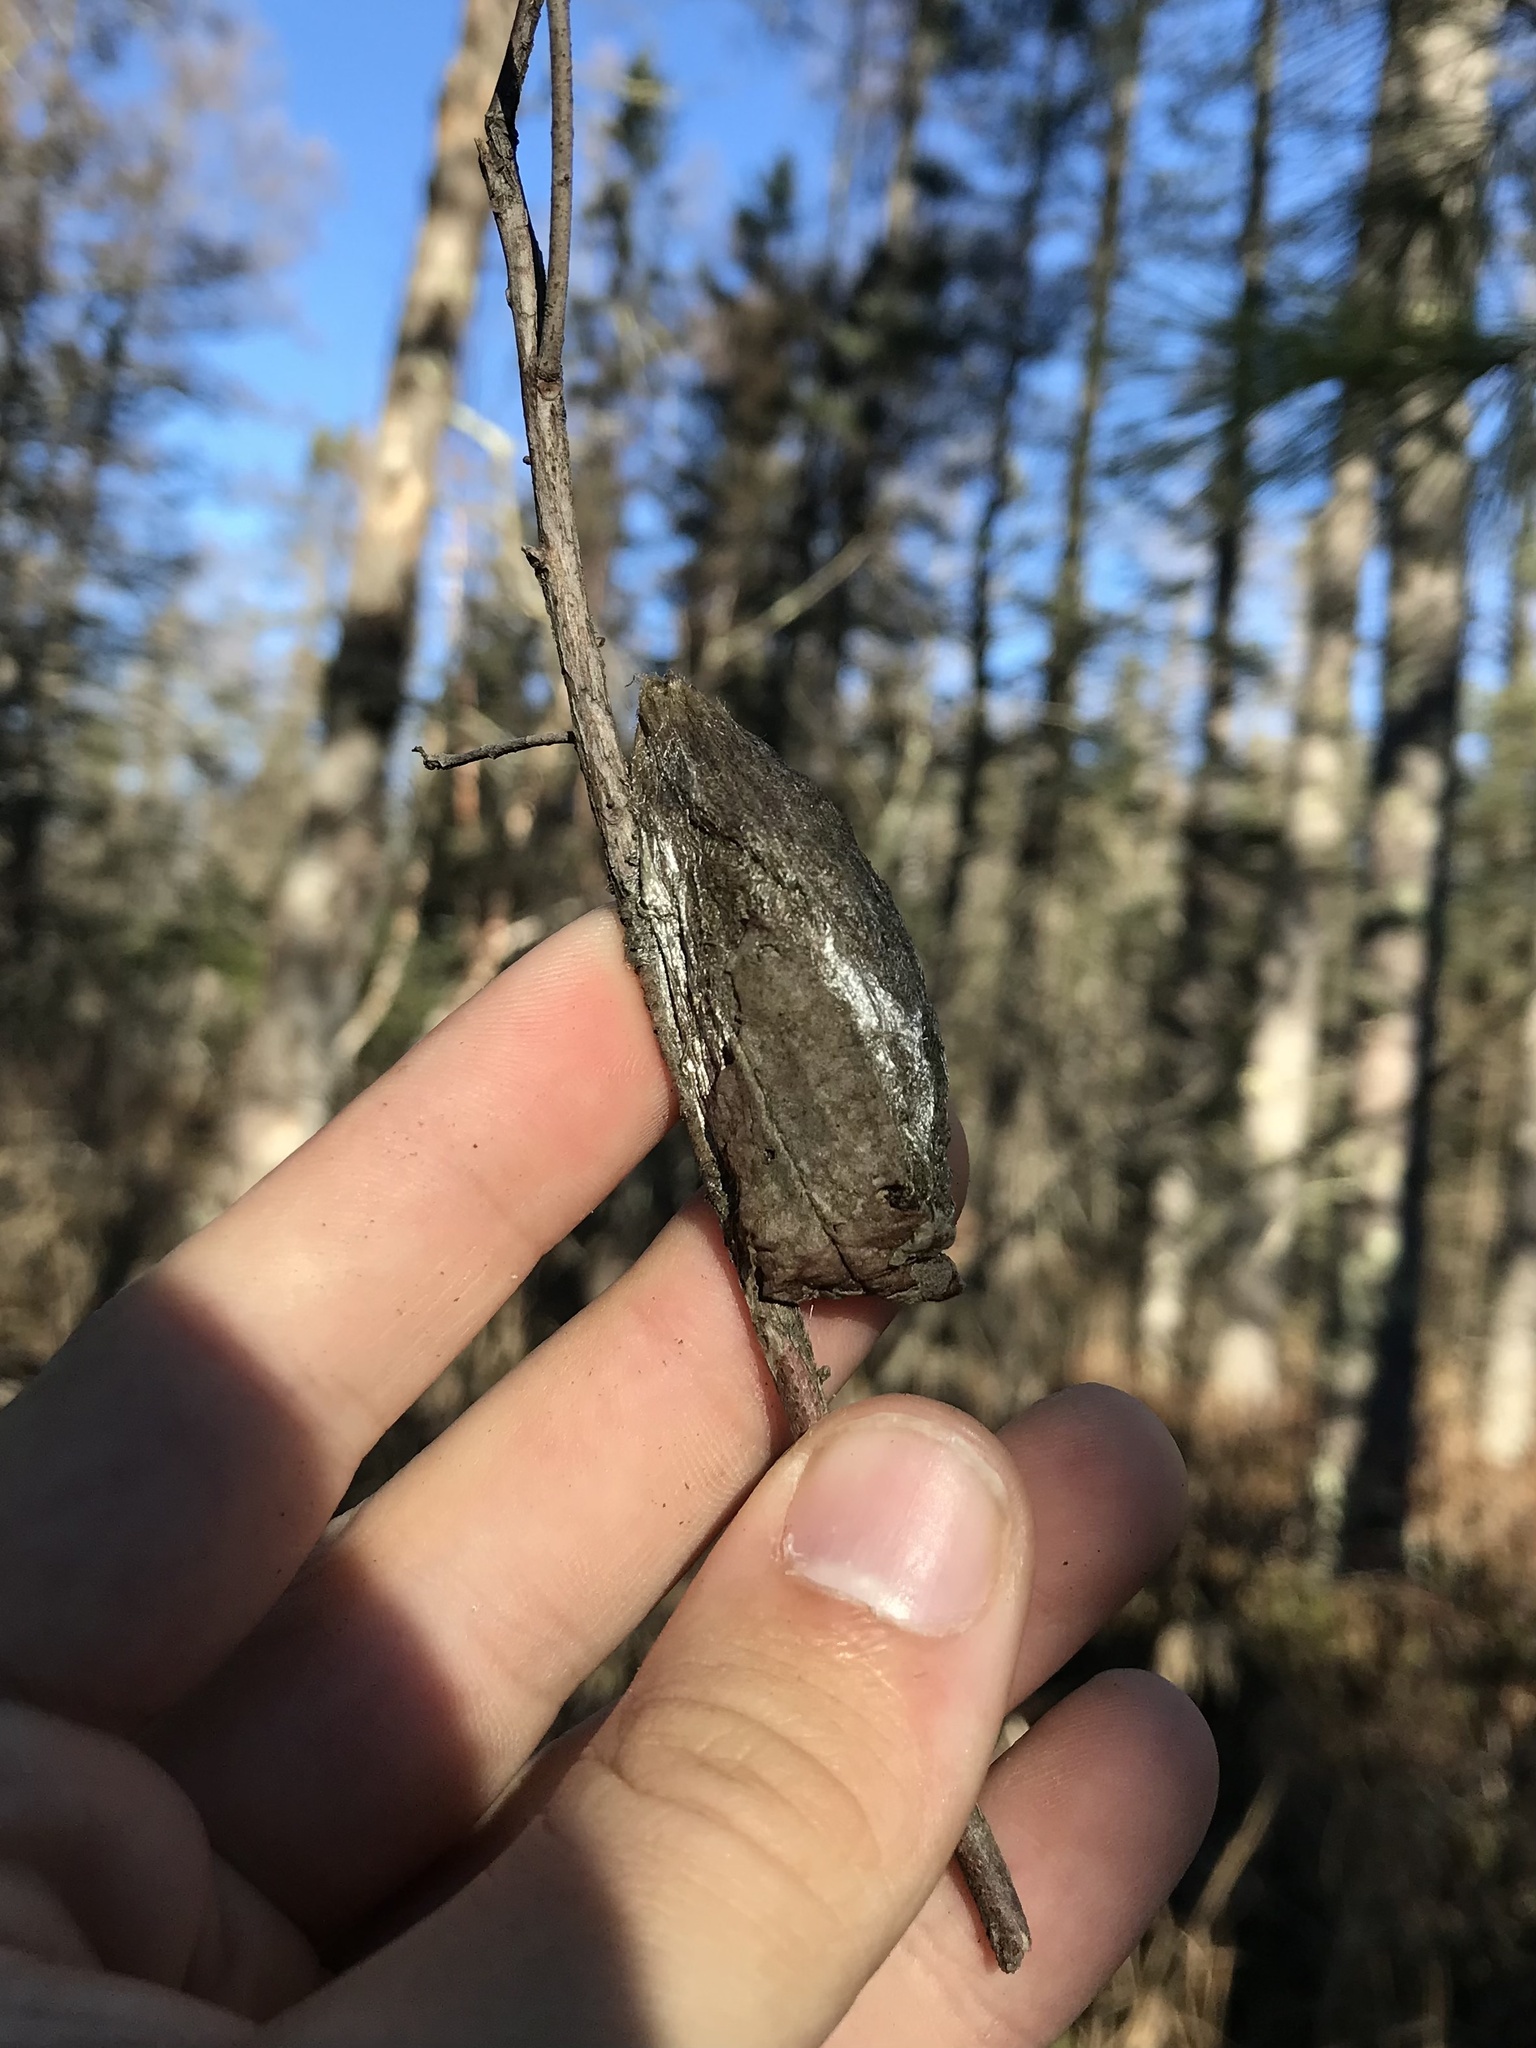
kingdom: Animalia
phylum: Arthropoda
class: Insecta
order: Lepidoptera
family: Saturniidae
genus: Hyalophora
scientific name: Hyalophora columbia
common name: Columbia silkmoth
